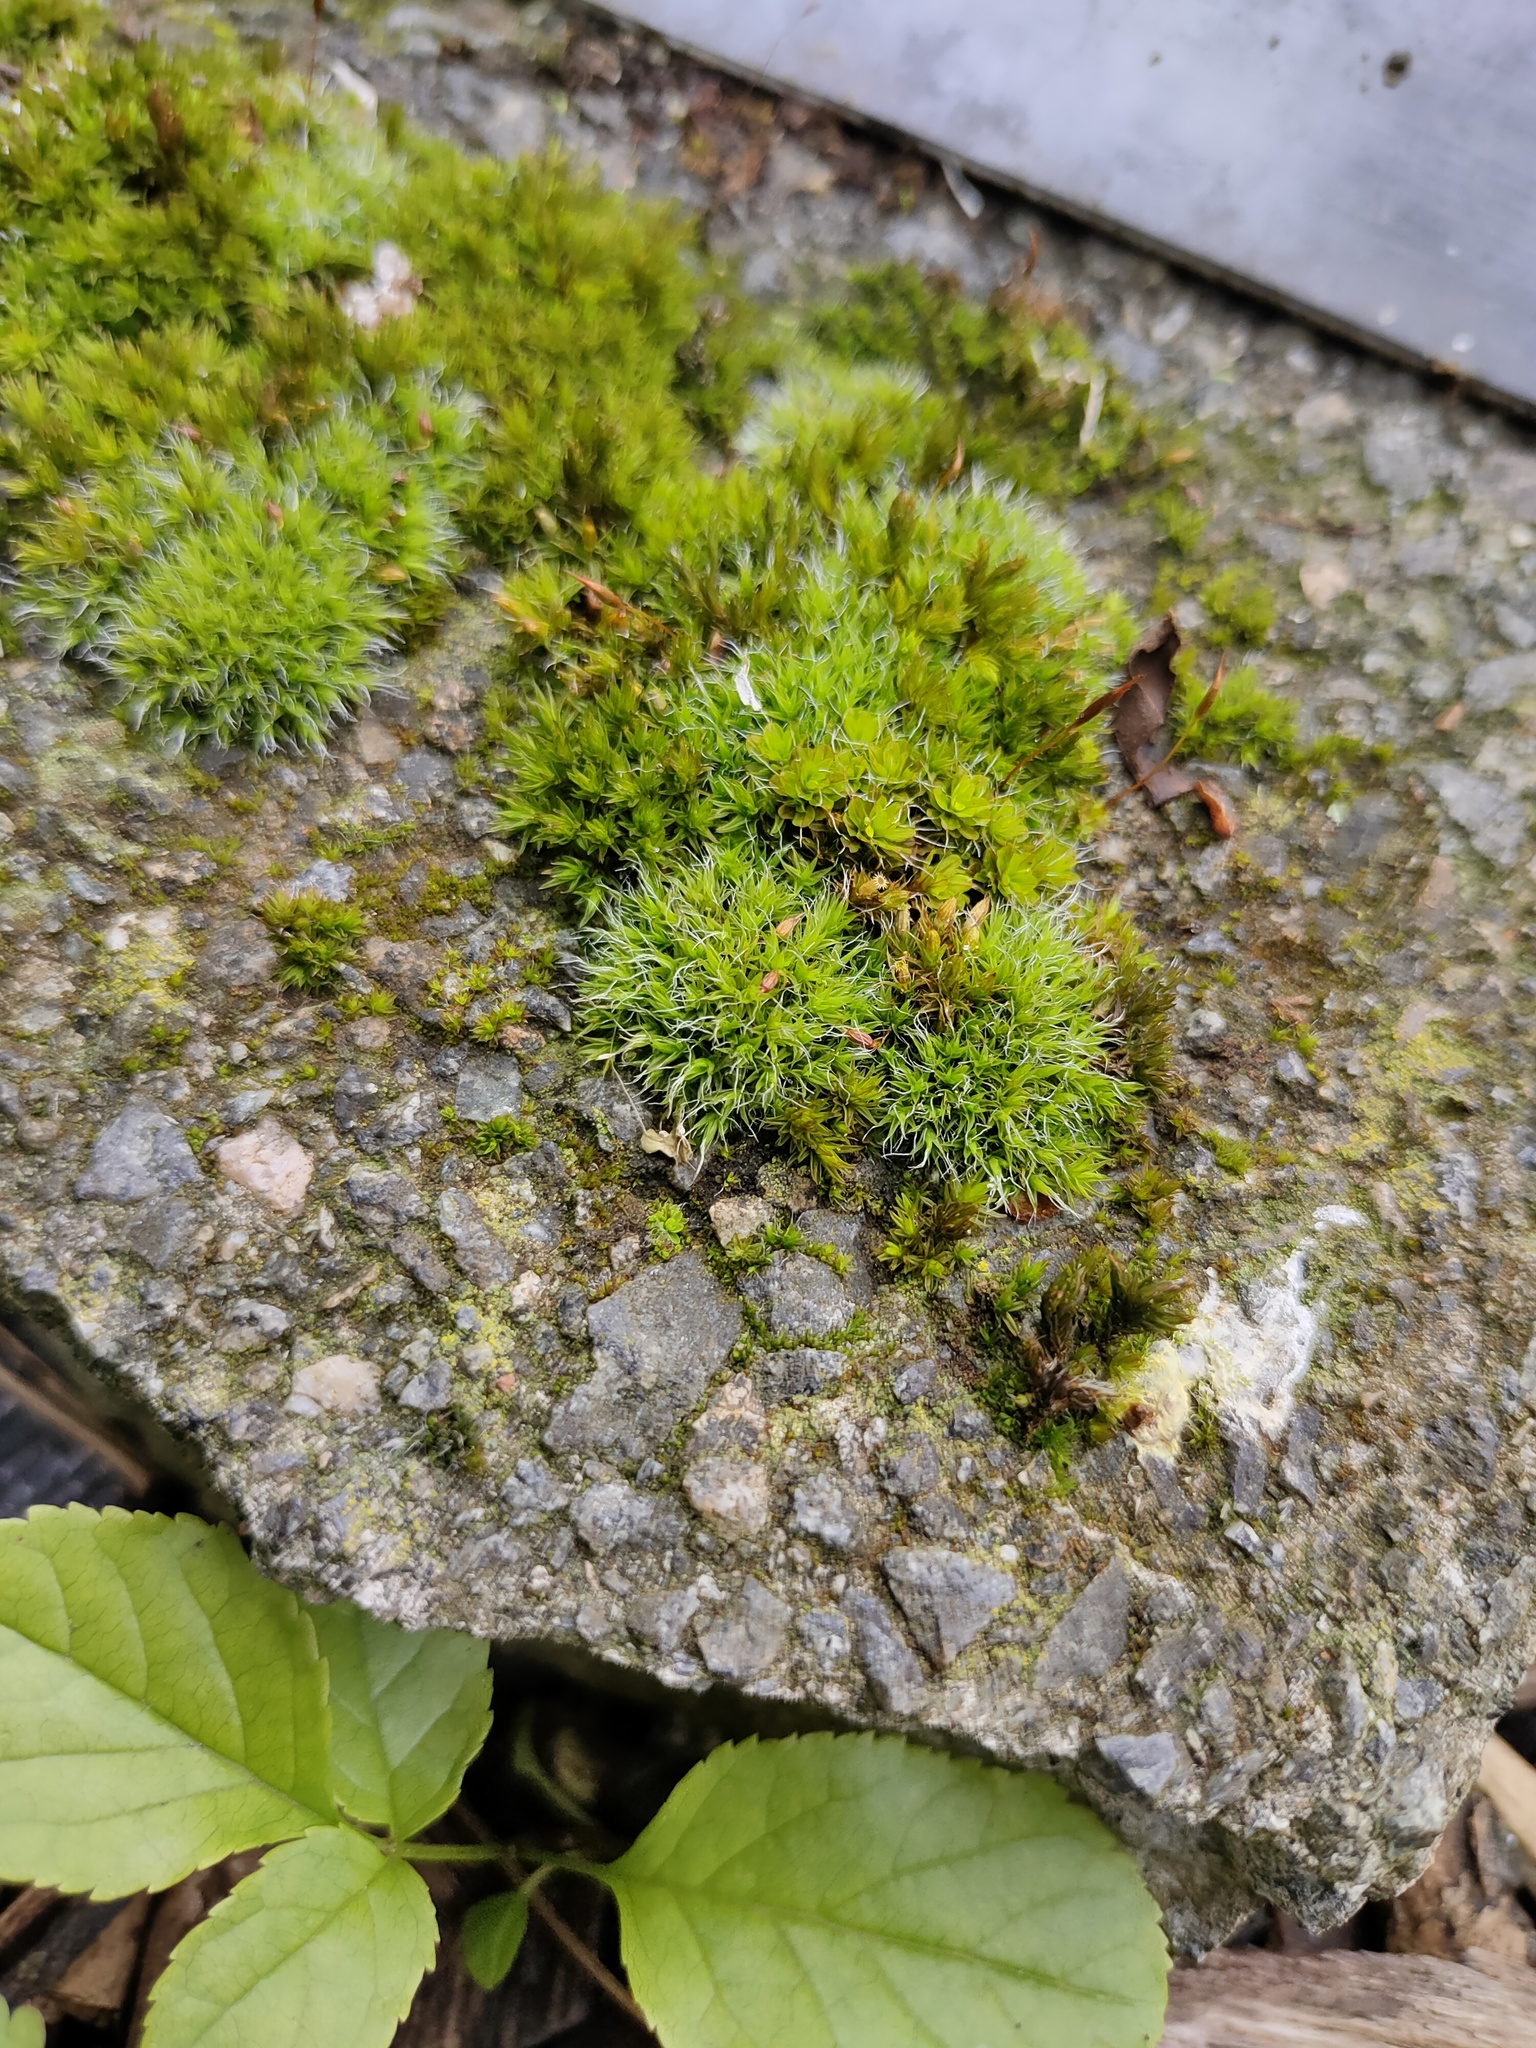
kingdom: Plantae
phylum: Bryophyta
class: Bryopsida
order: Grimmiales
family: Grimmiaceae
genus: Grimmia
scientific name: Grimmia pulvinata
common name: Grey-cushioned grimmia
